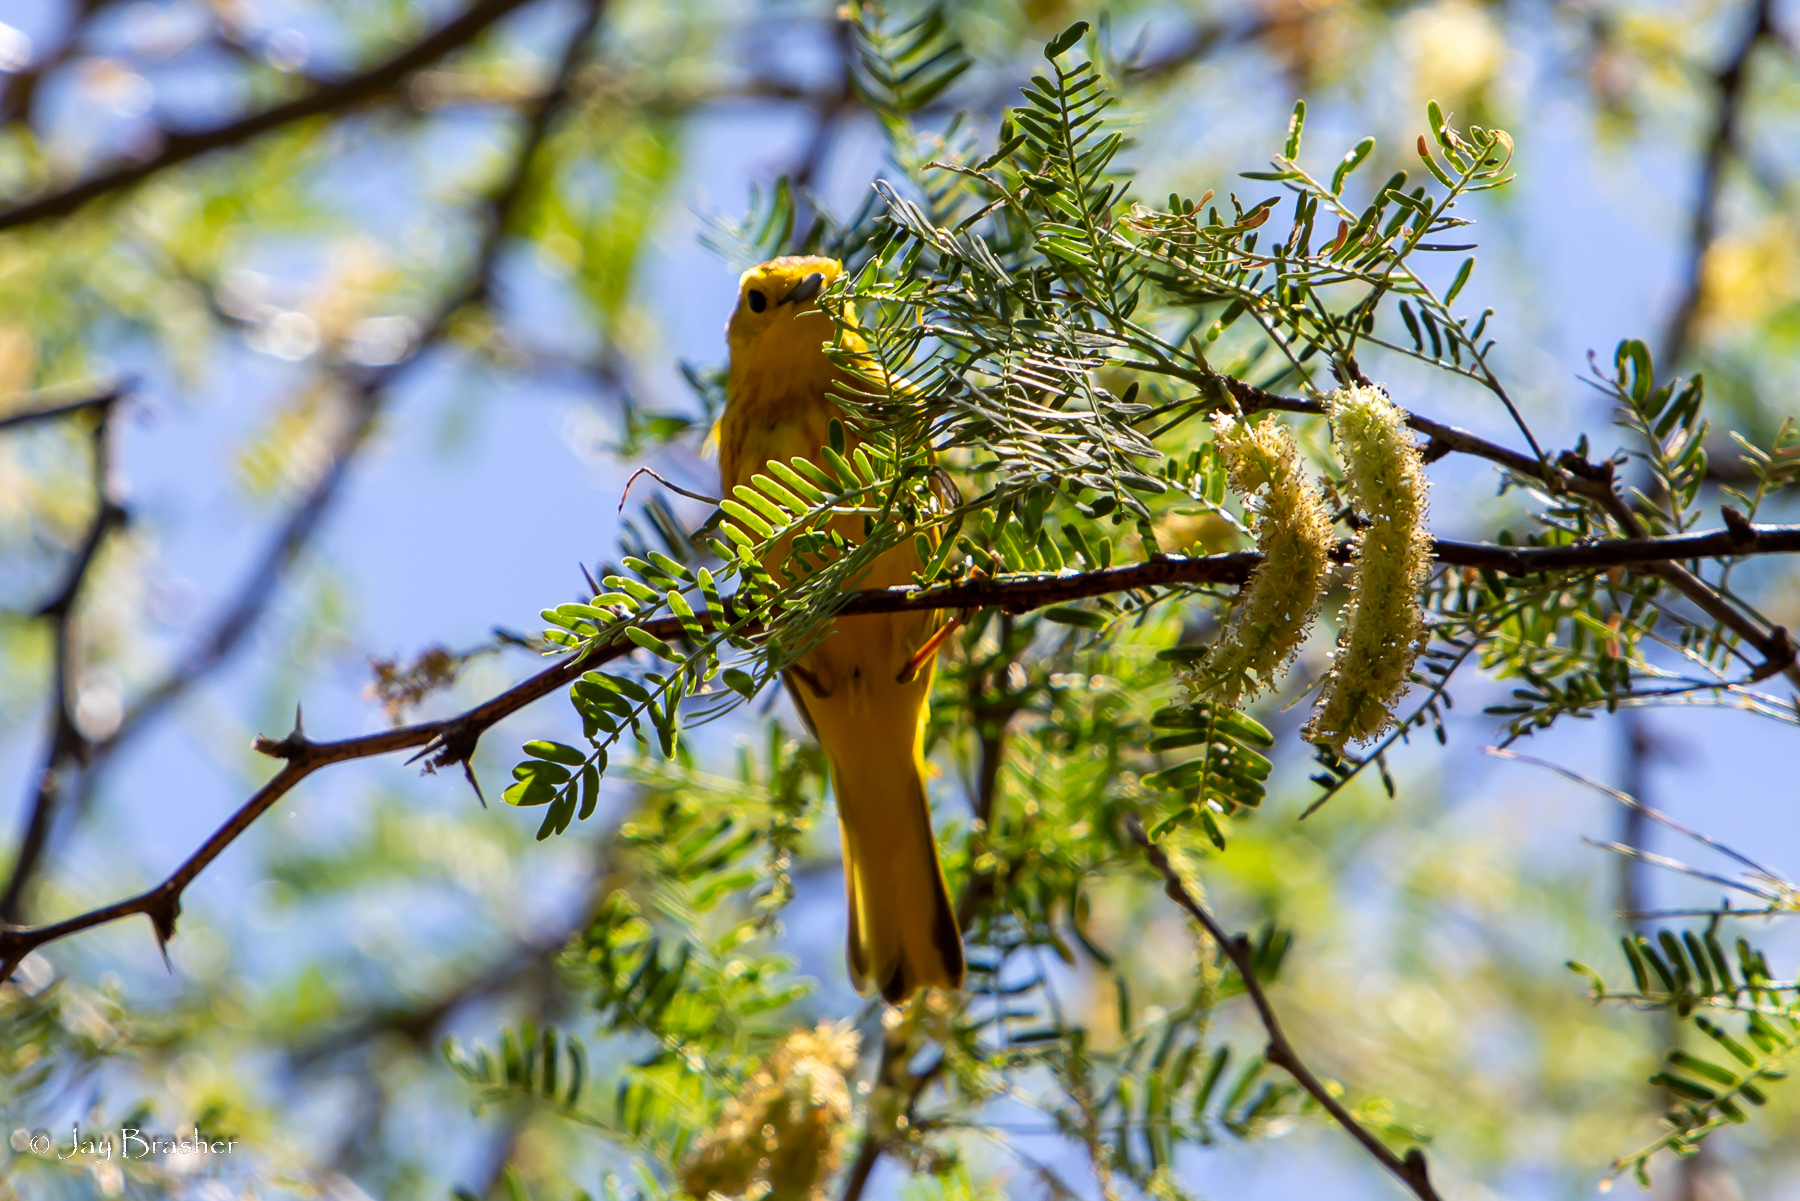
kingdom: Animalia
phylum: Chordata
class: Aves
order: Passeriformes
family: Parulidae
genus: Setophaga
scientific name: Setophaga petechia
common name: Yellow warbler
